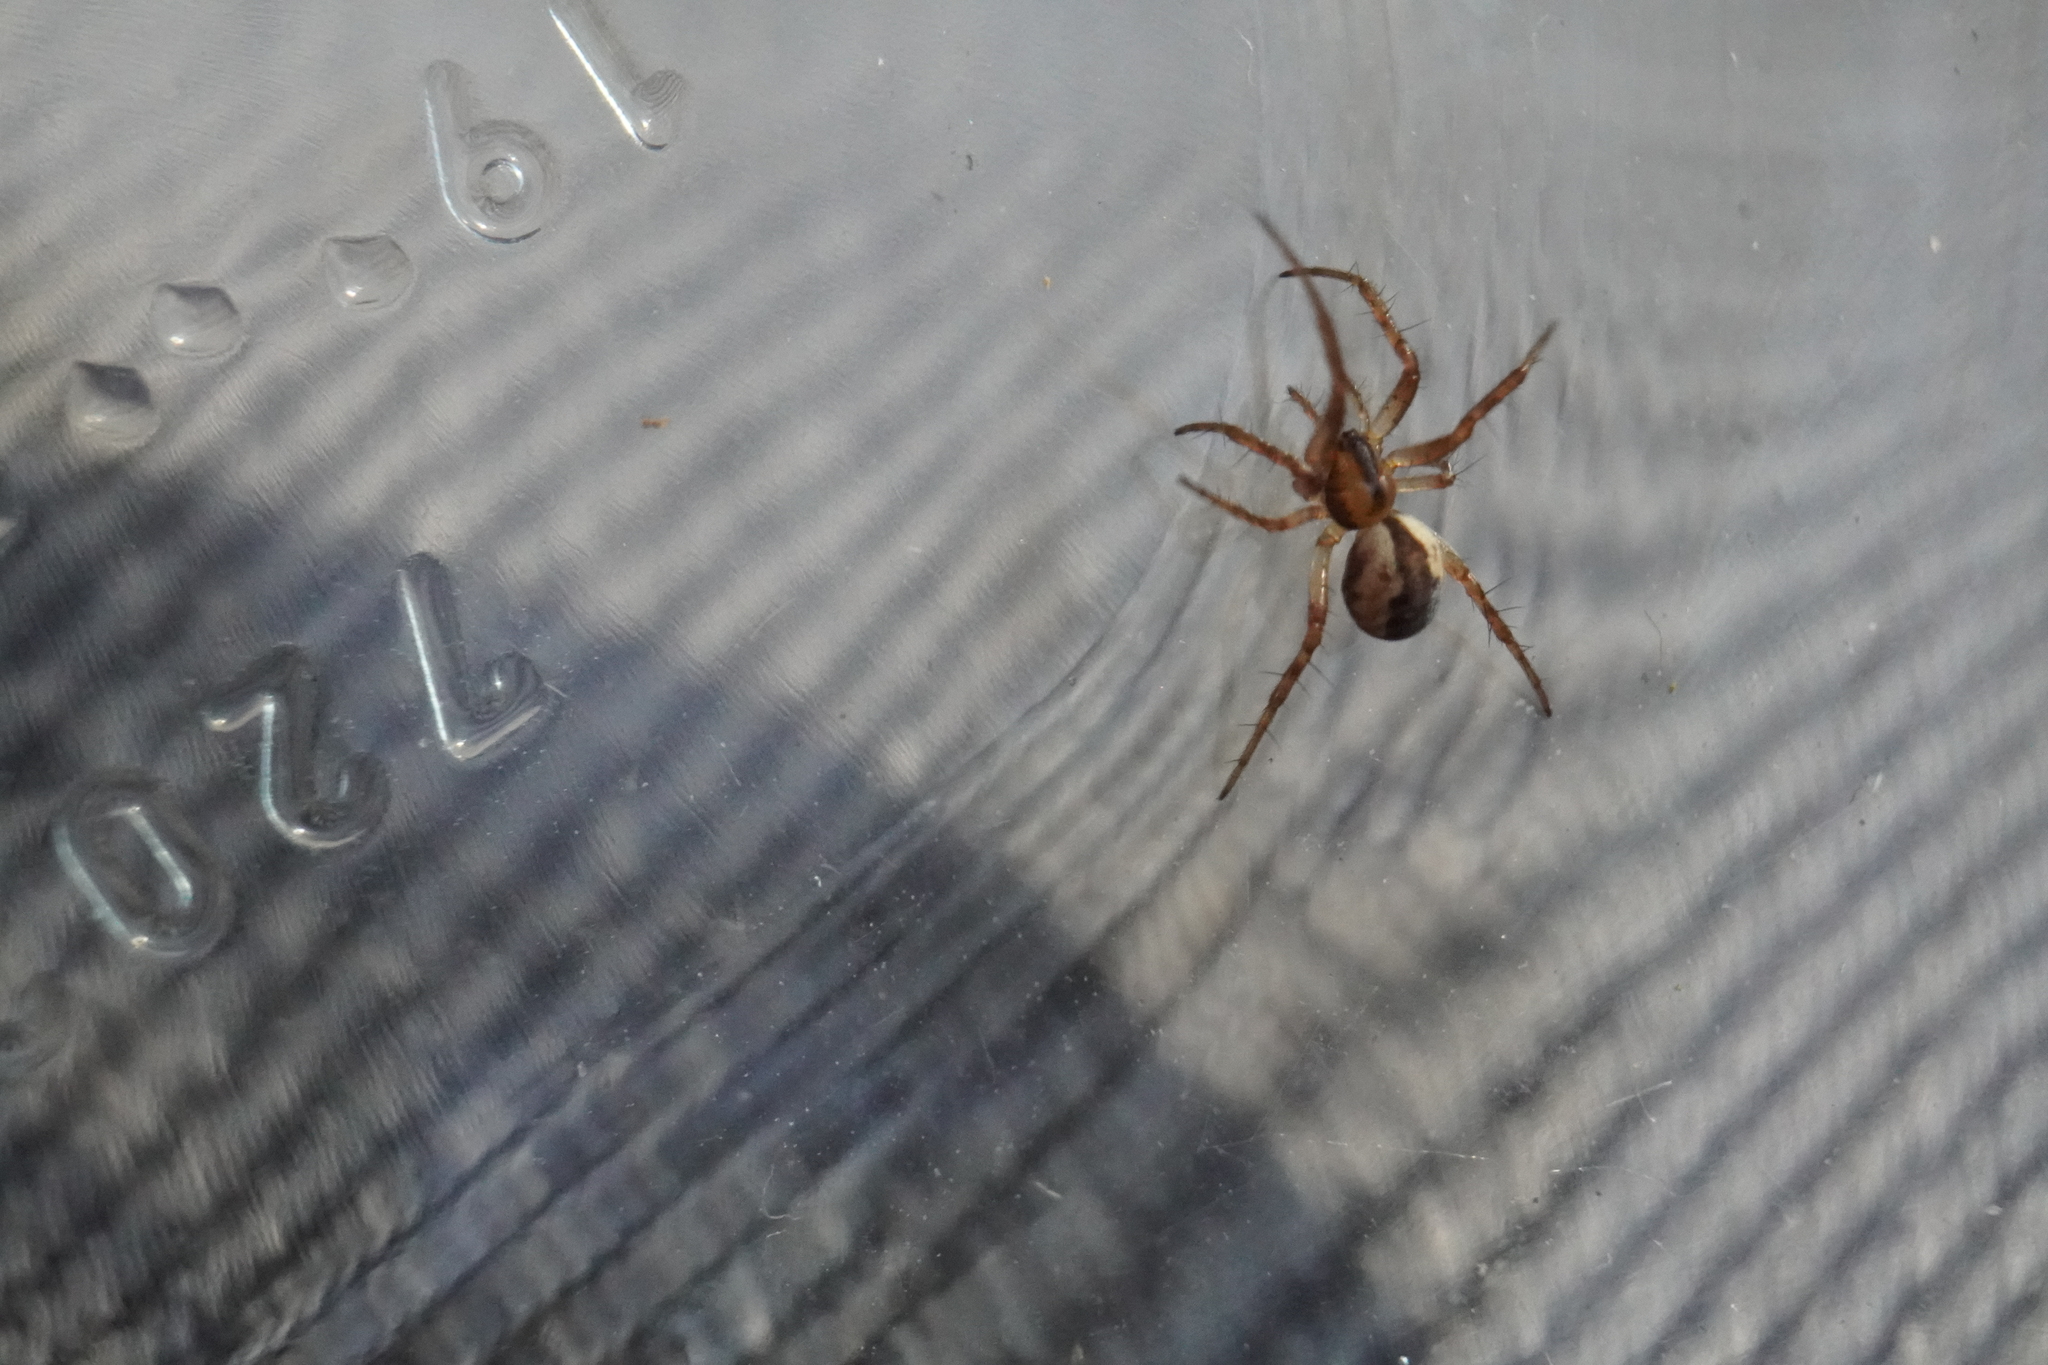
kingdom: Animalia
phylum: Arthropoda
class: Arachnida
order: Araneae
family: Araneidae
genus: Mangora
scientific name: Mangora placida
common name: Tuft-legged orbweaver
